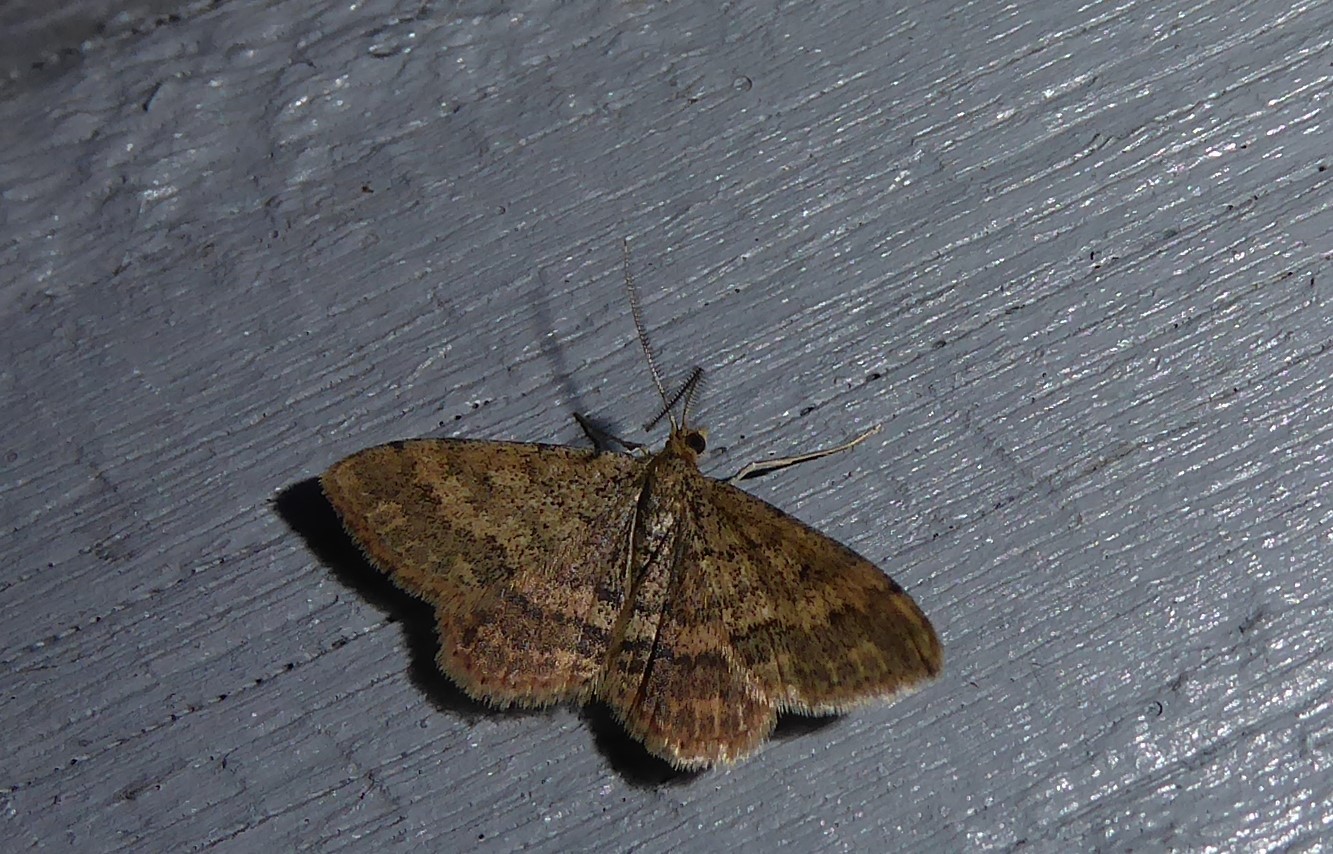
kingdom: Animalia
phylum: Arthropoda
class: Insecta
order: Lepidoptera
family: Geometridae
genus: Scopula
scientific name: Scopula rubraria
